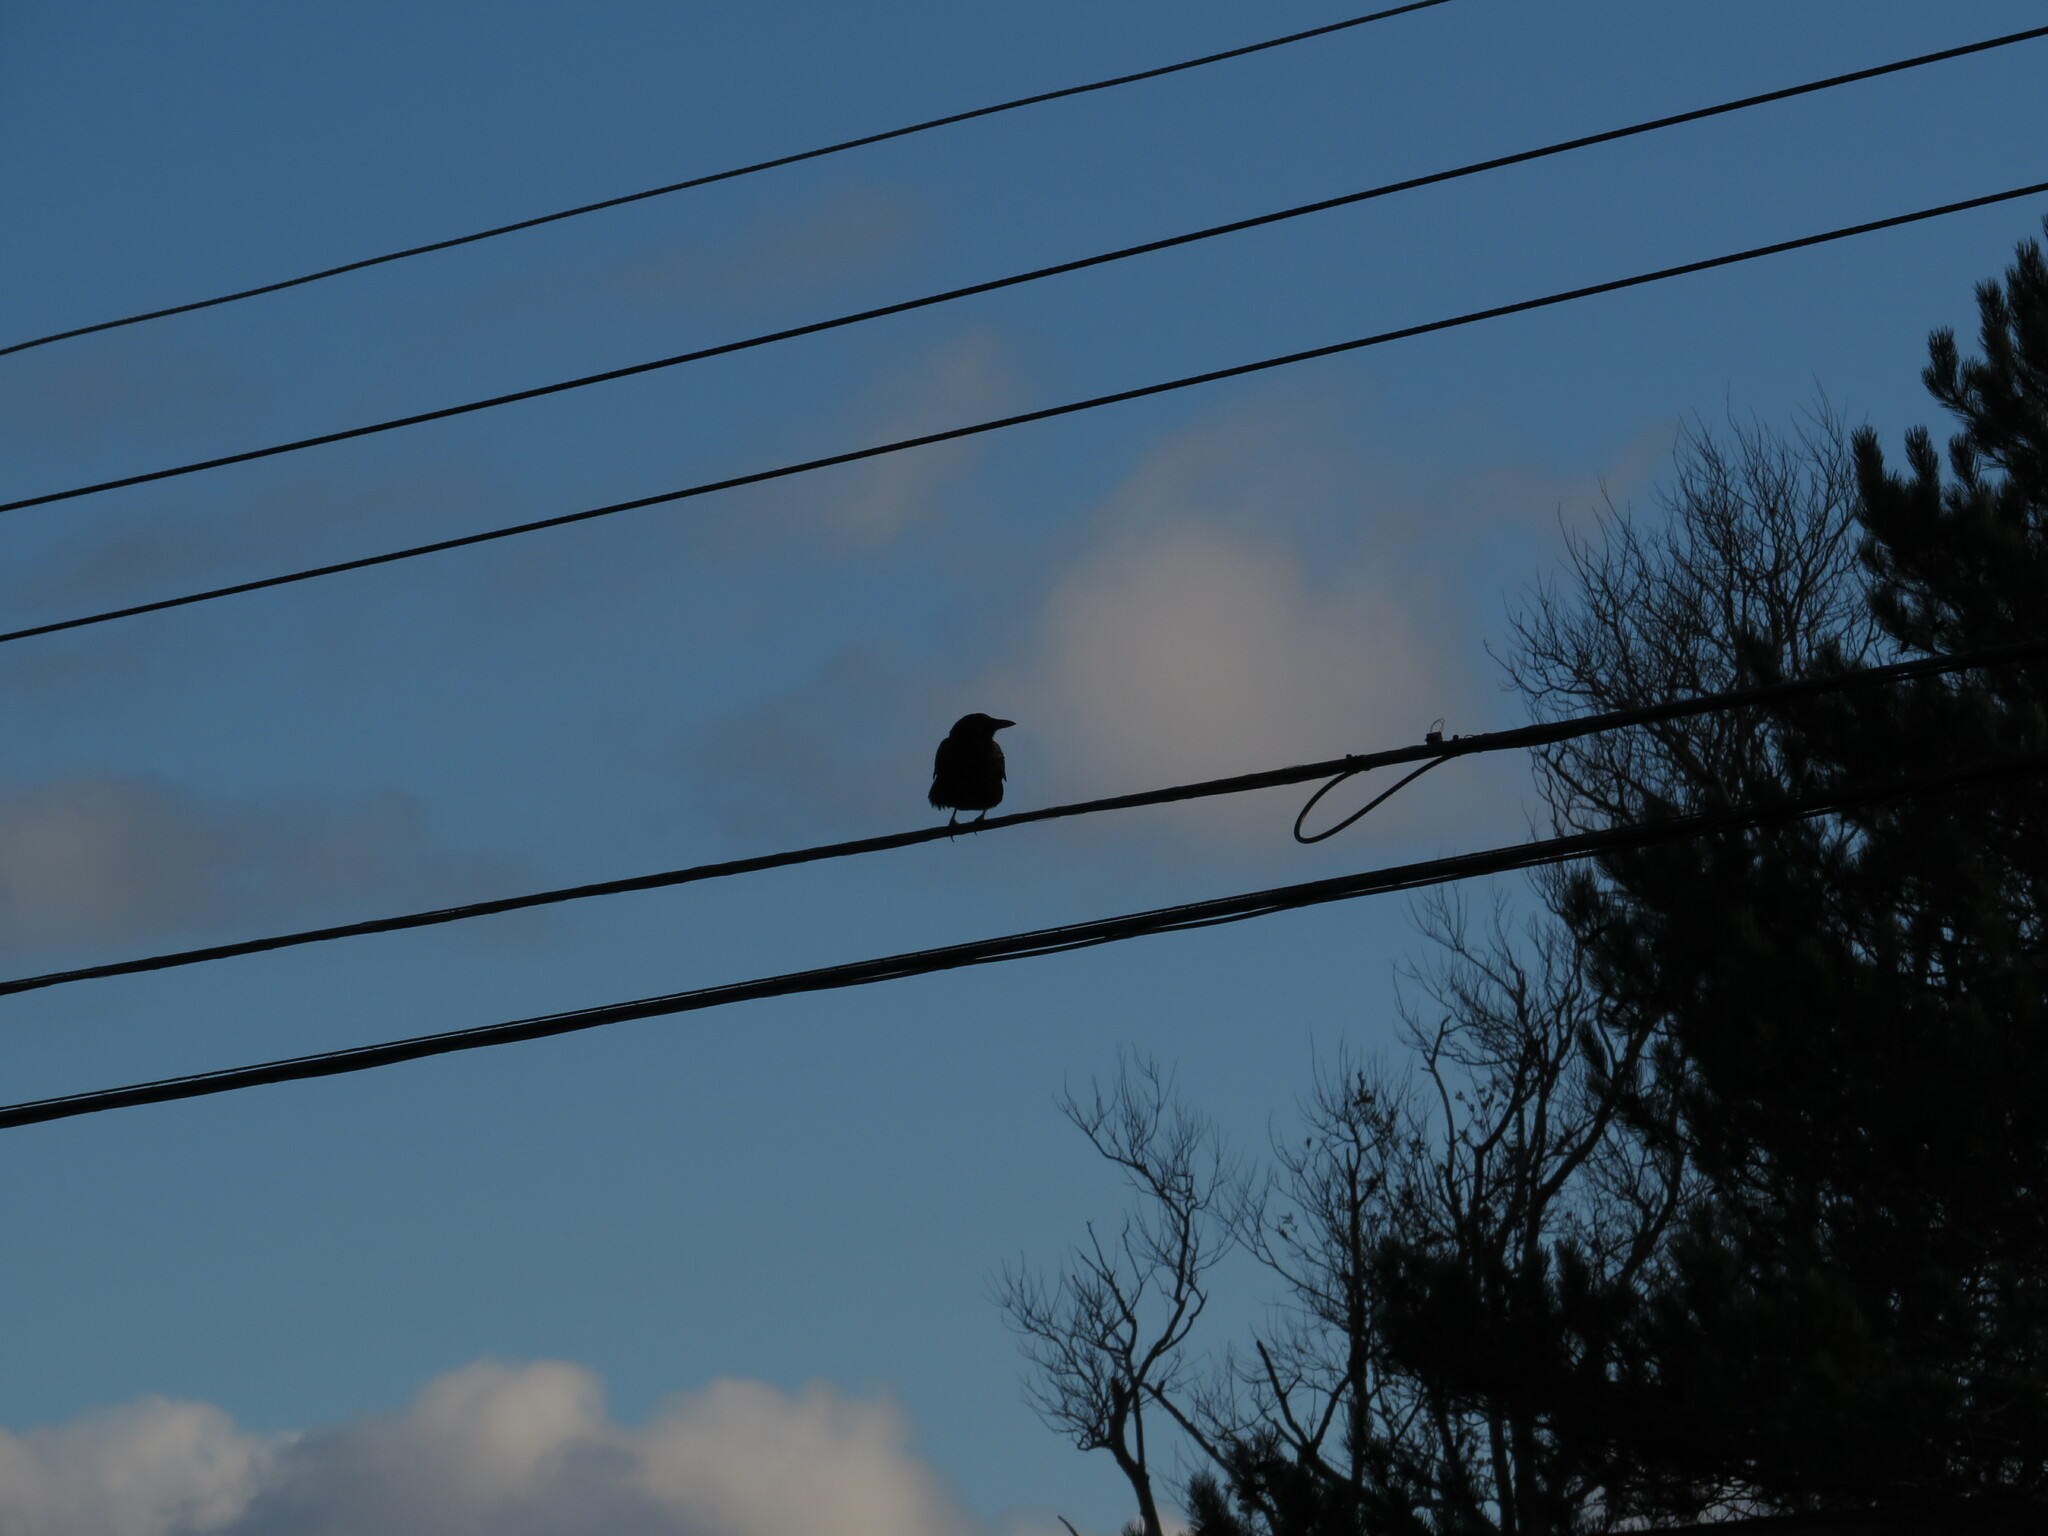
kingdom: Animalia
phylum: Chordata
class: Aves
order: Passeriformes
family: Corvidae
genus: Corvus
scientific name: Corvus brachyrhynchos
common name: American crow
